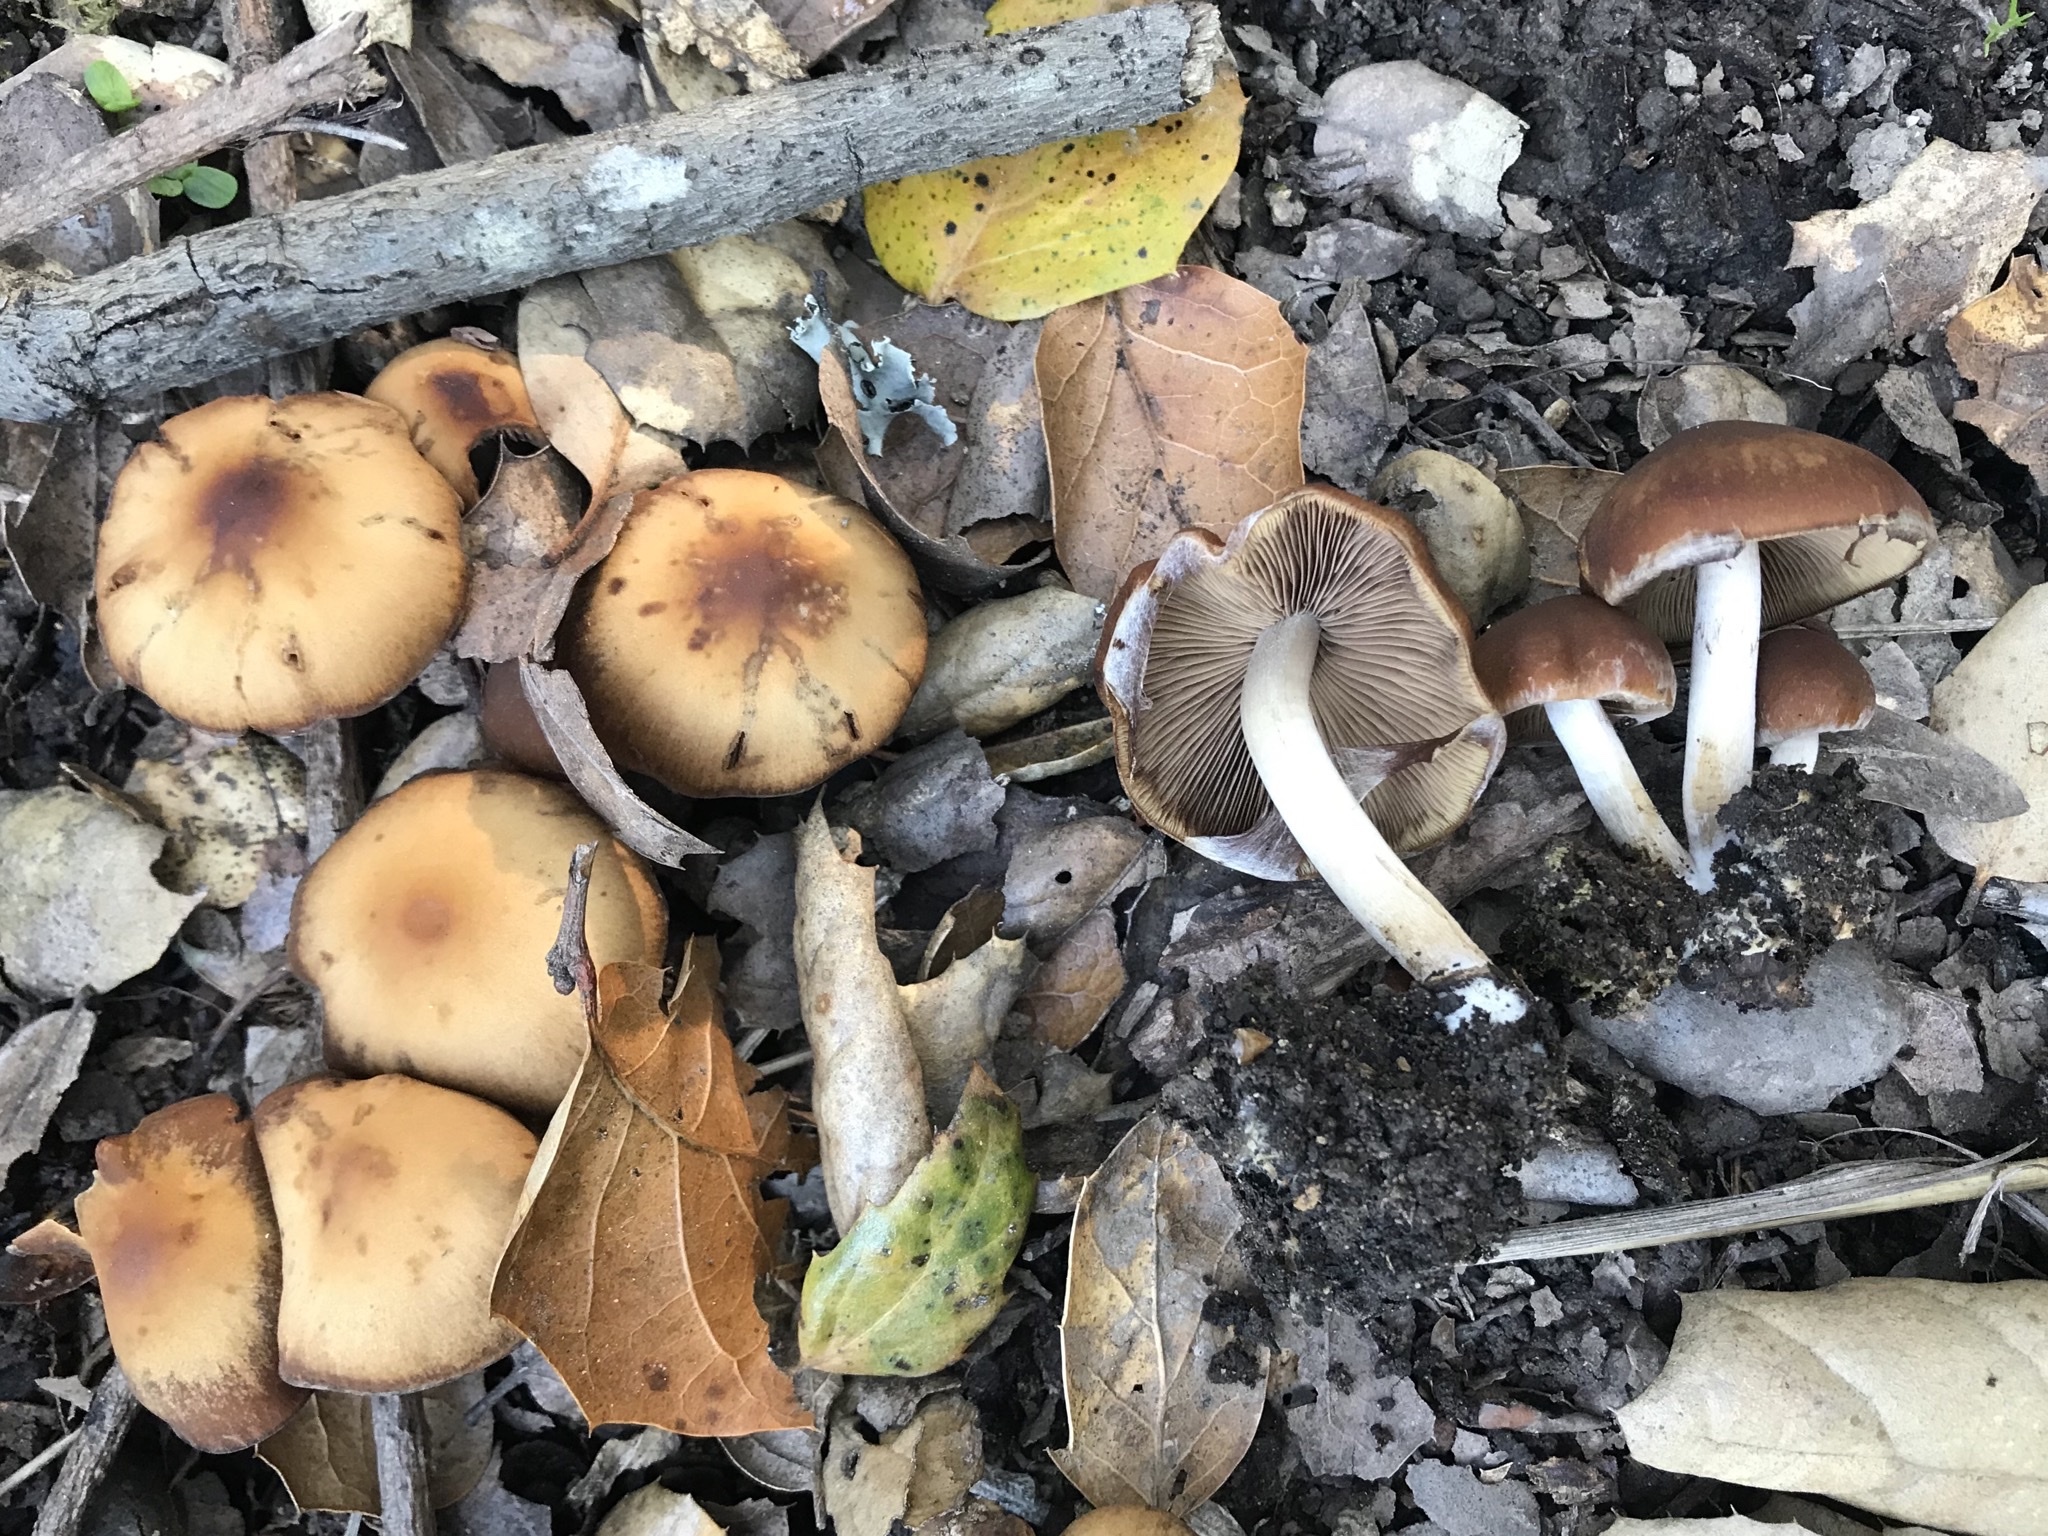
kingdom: Fungi
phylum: Basidiomycota
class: Agaricomycetes
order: Agaricales
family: Psathyrellaceae
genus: Psathyrella
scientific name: Psathyrella piluliformis
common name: Common stump brittlestem
